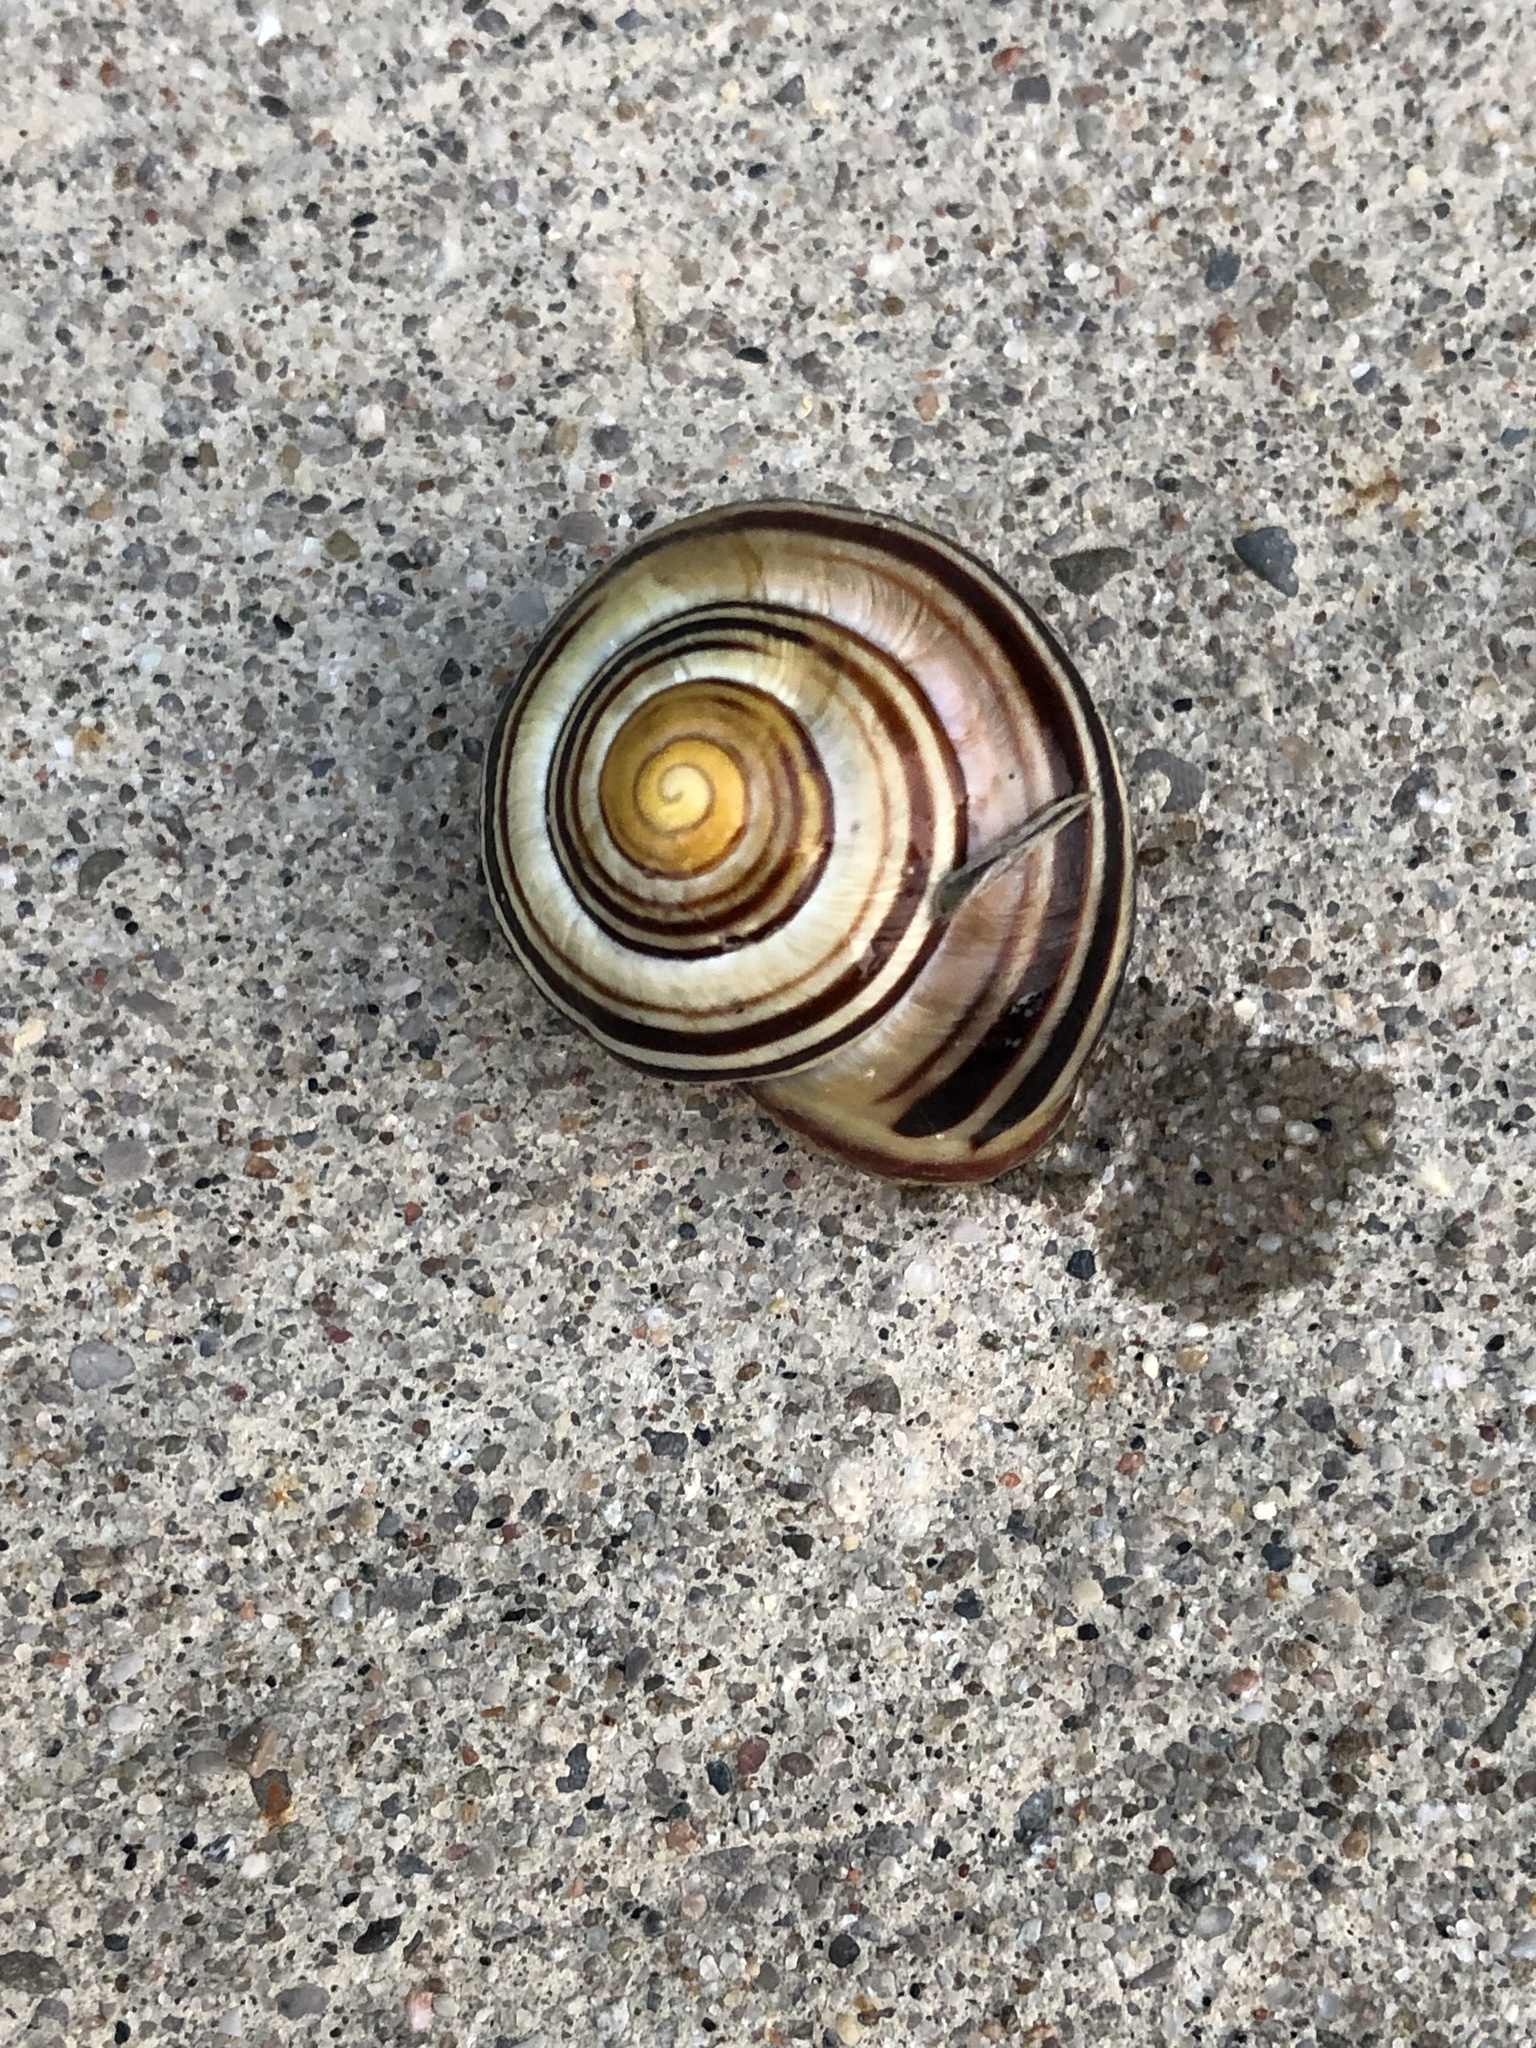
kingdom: Animalia
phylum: Mollusca
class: Gastropoda
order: Stylommatophora
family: Helicidae
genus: Cepaea
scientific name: Cepaea nemoralis
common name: Grovesnail
